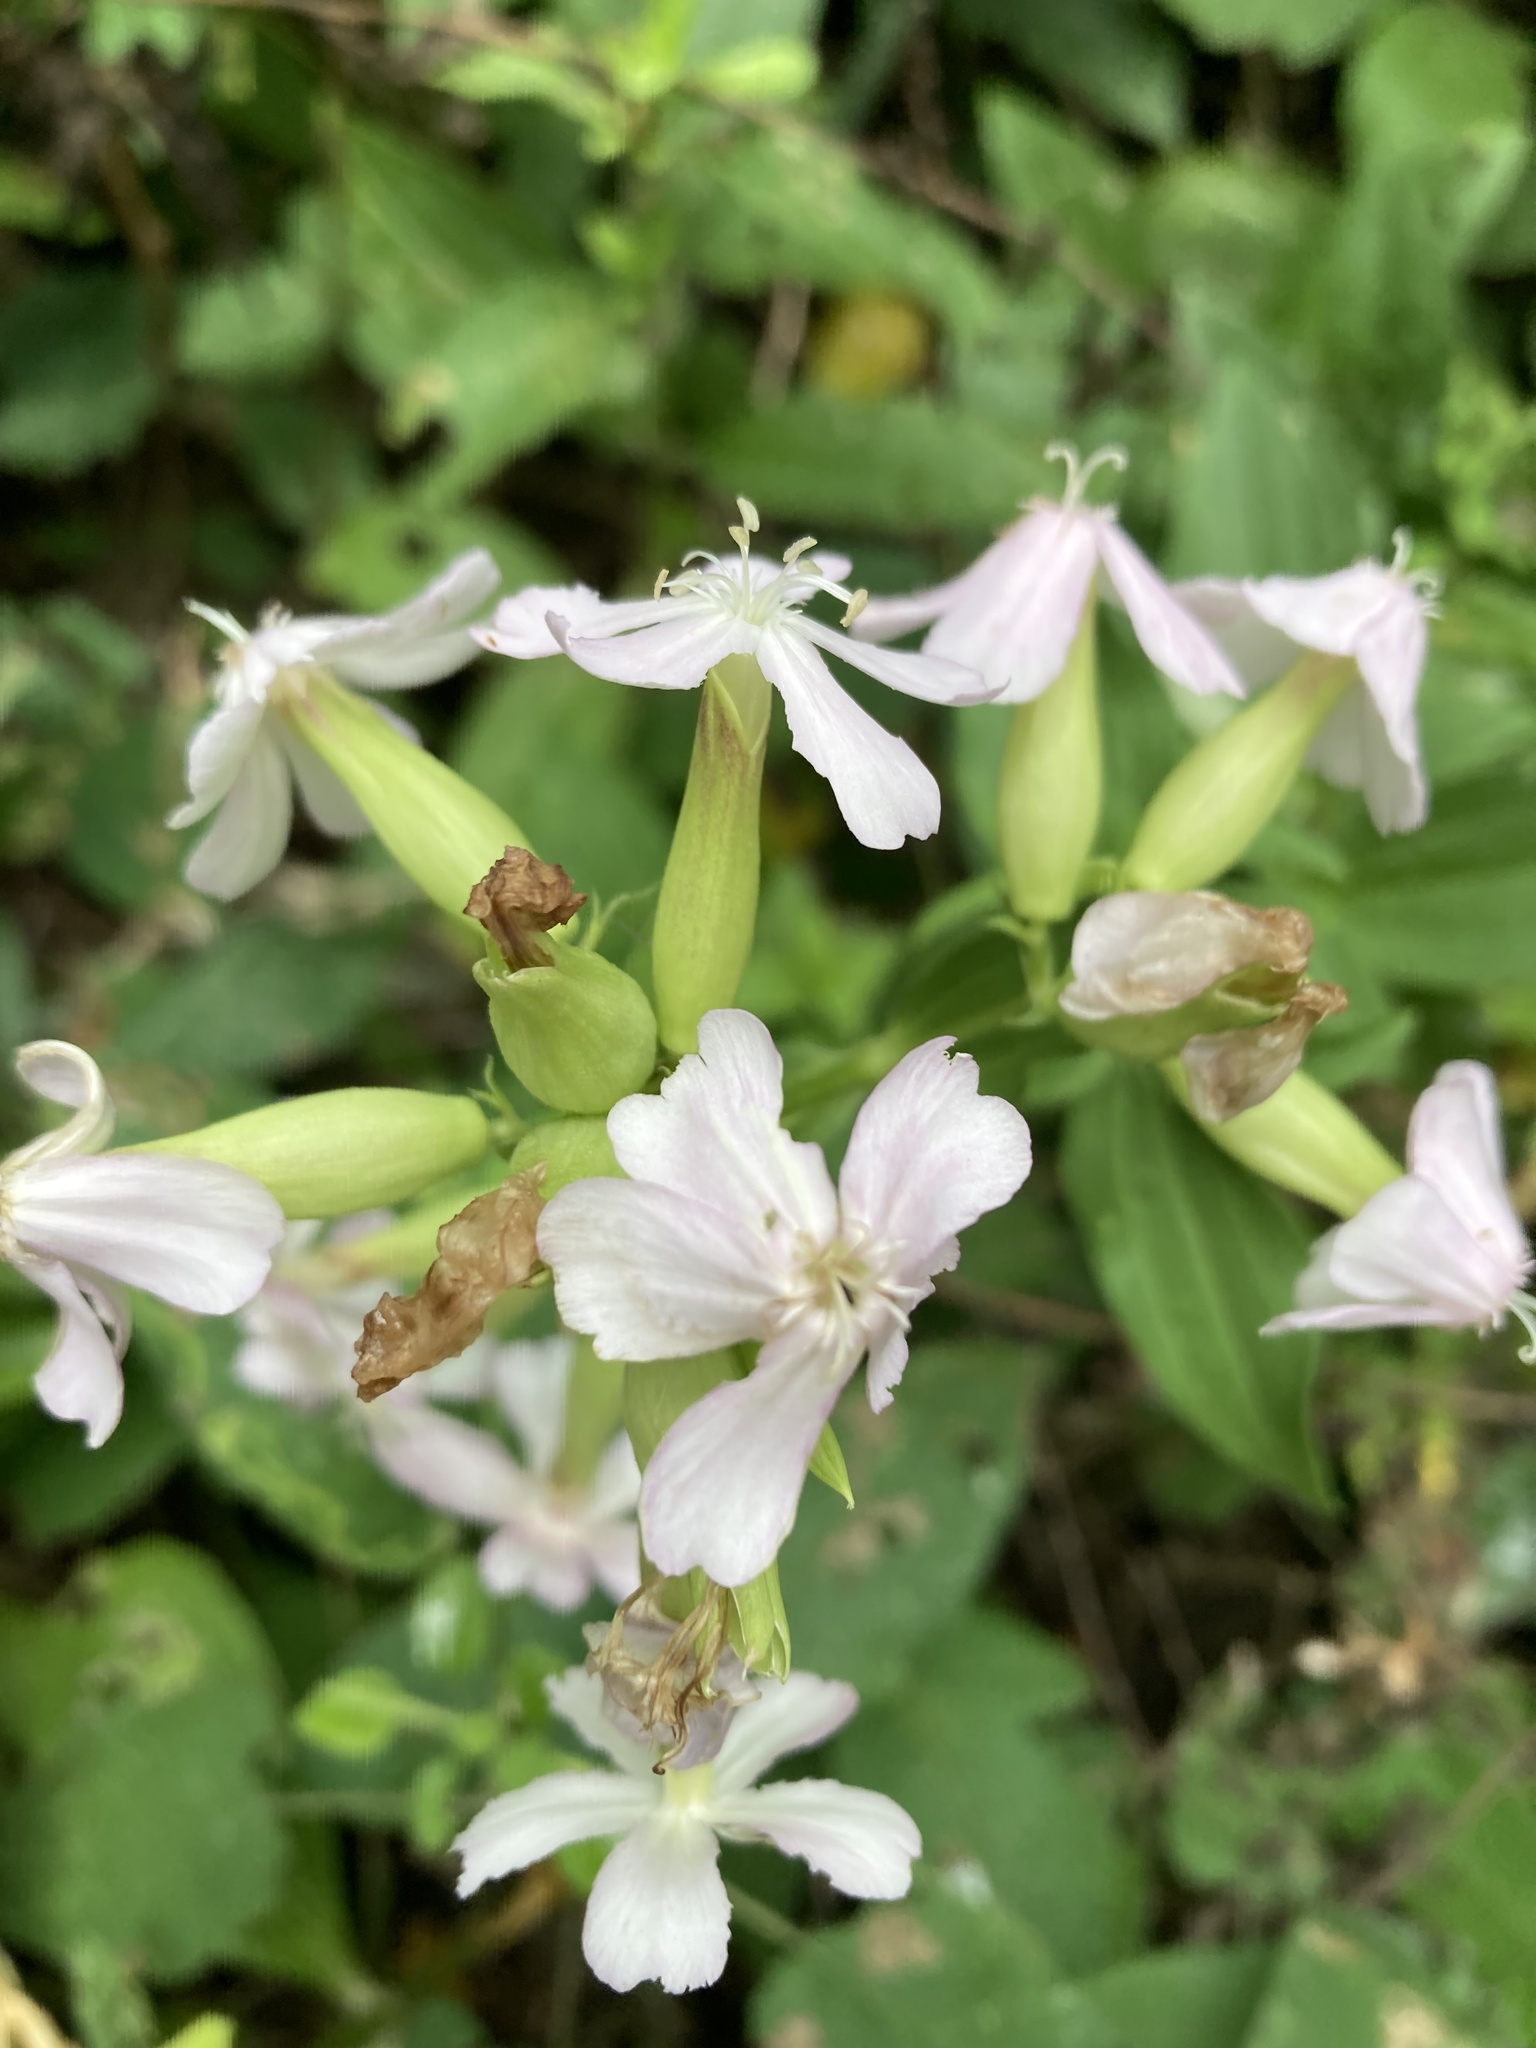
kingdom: Plantae
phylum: Tracheophyta
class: Magnoliopsida
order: Caryophyllales
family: Caryophyllaceae
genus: Saponaria
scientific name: Saponaria officinalis
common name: Soapwort
